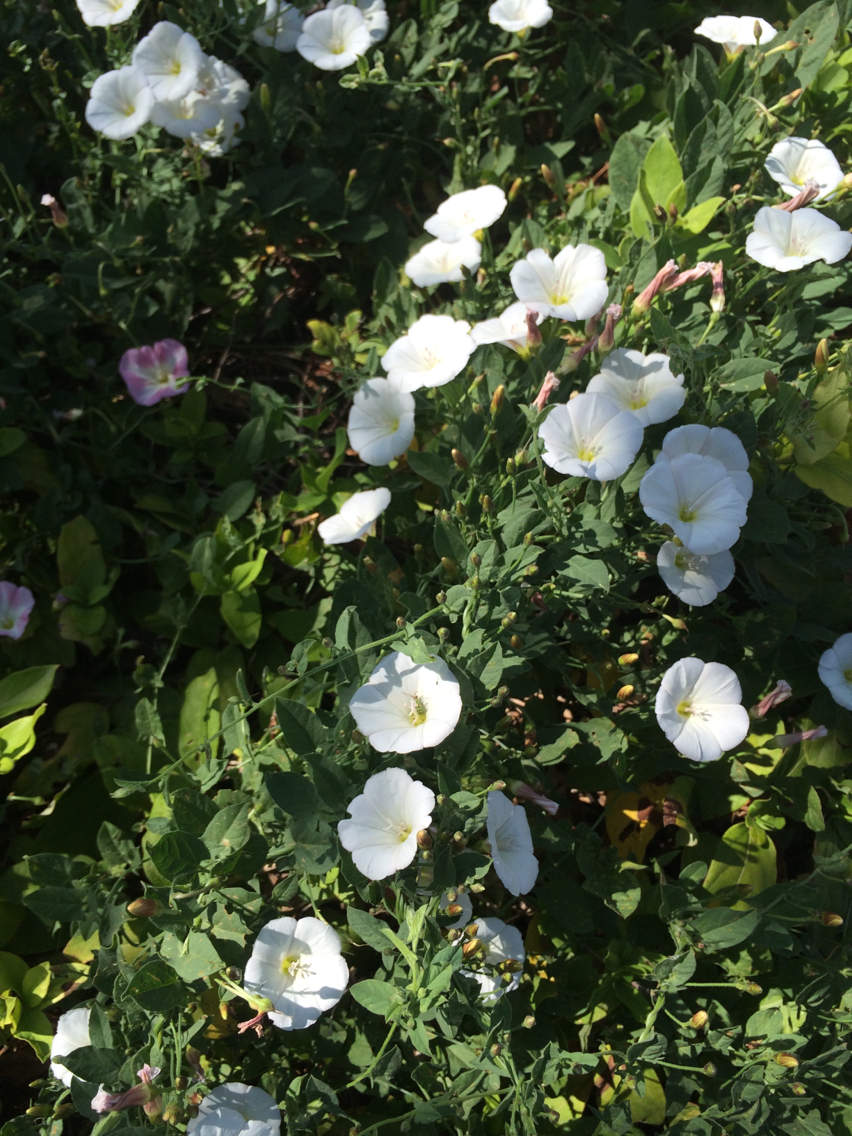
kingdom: Plantae
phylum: Tracheophyta
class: Magnoliopsida
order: Solanales
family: Convolvulaceae
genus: Convolvulus
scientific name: Convolvulus arvensis
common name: Field bindweed
